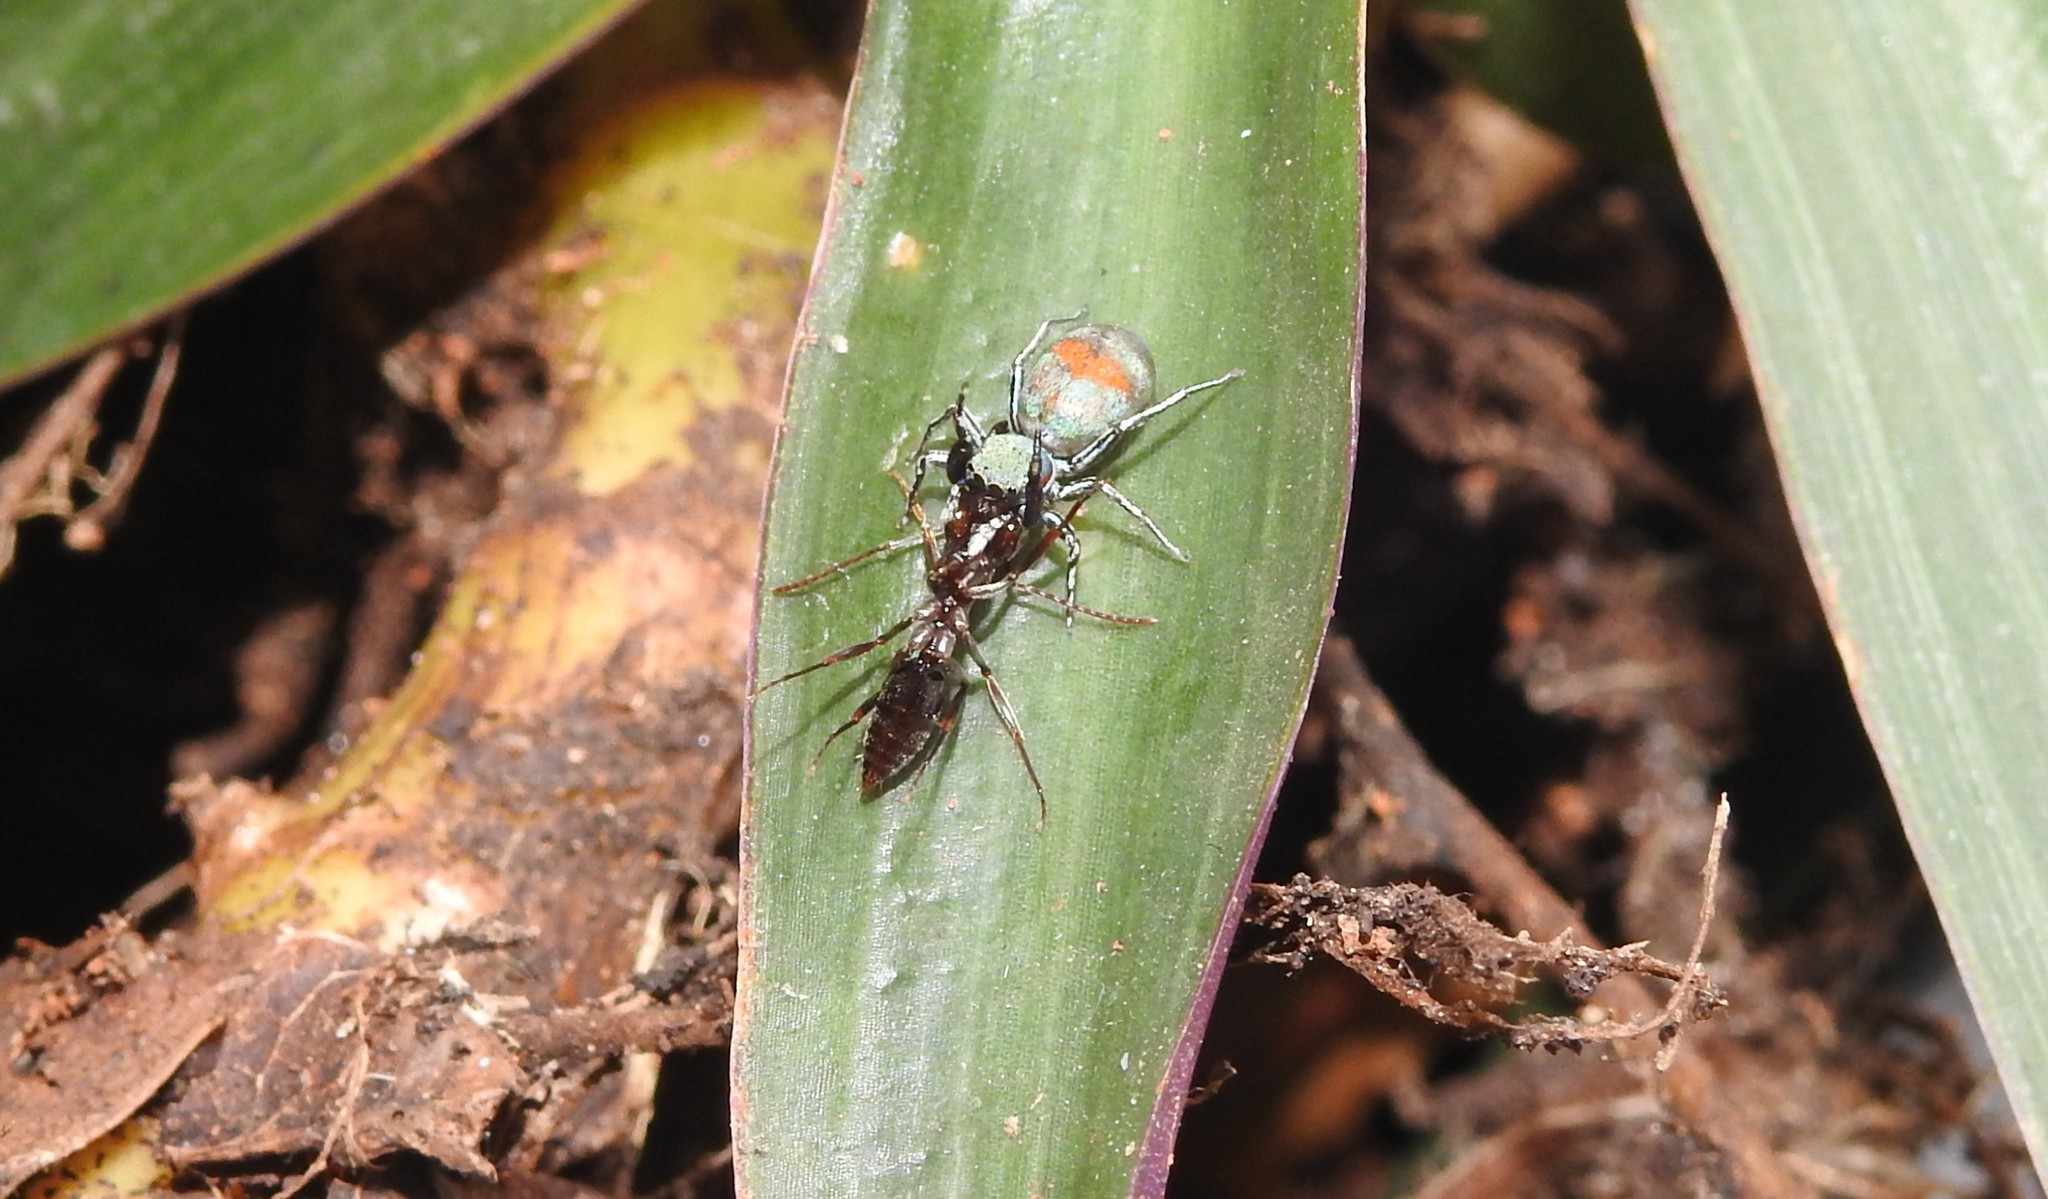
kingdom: Animalia
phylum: Arthropoda
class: Arachnida
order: Araneae
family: Salticidae
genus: Siler
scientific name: Siler semiglaucus
